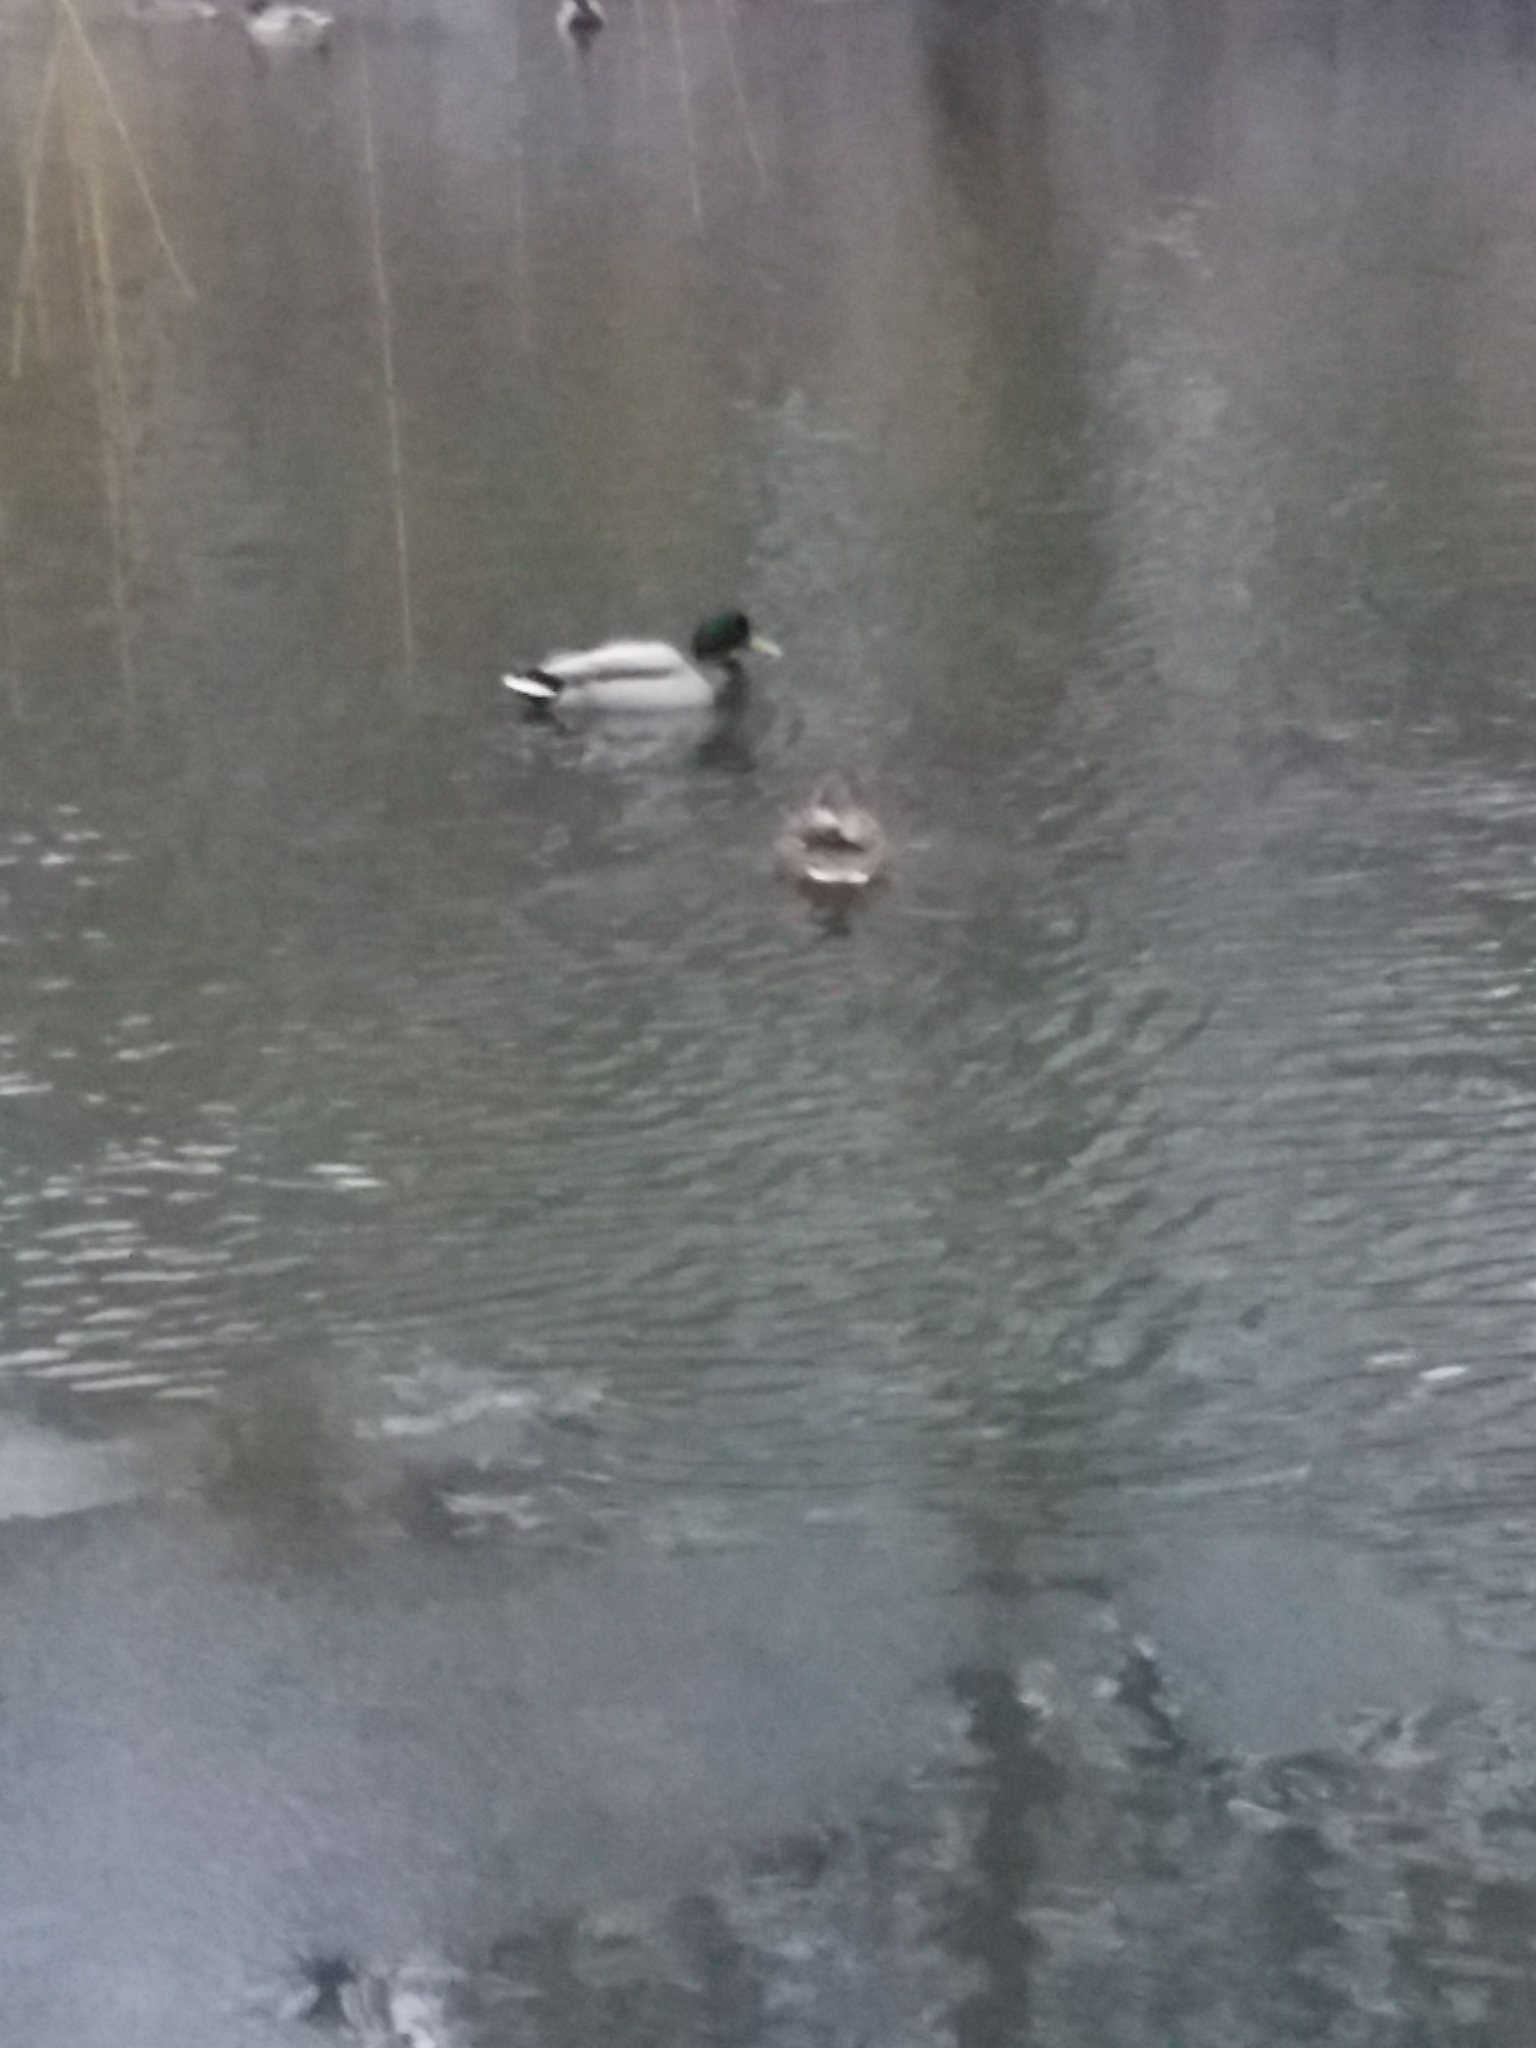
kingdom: Animalia
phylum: Chordata
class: Aves
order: Anseriformes
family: Anatidae
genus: Anas
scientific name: Anas platyrhynchos
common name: Mallard
